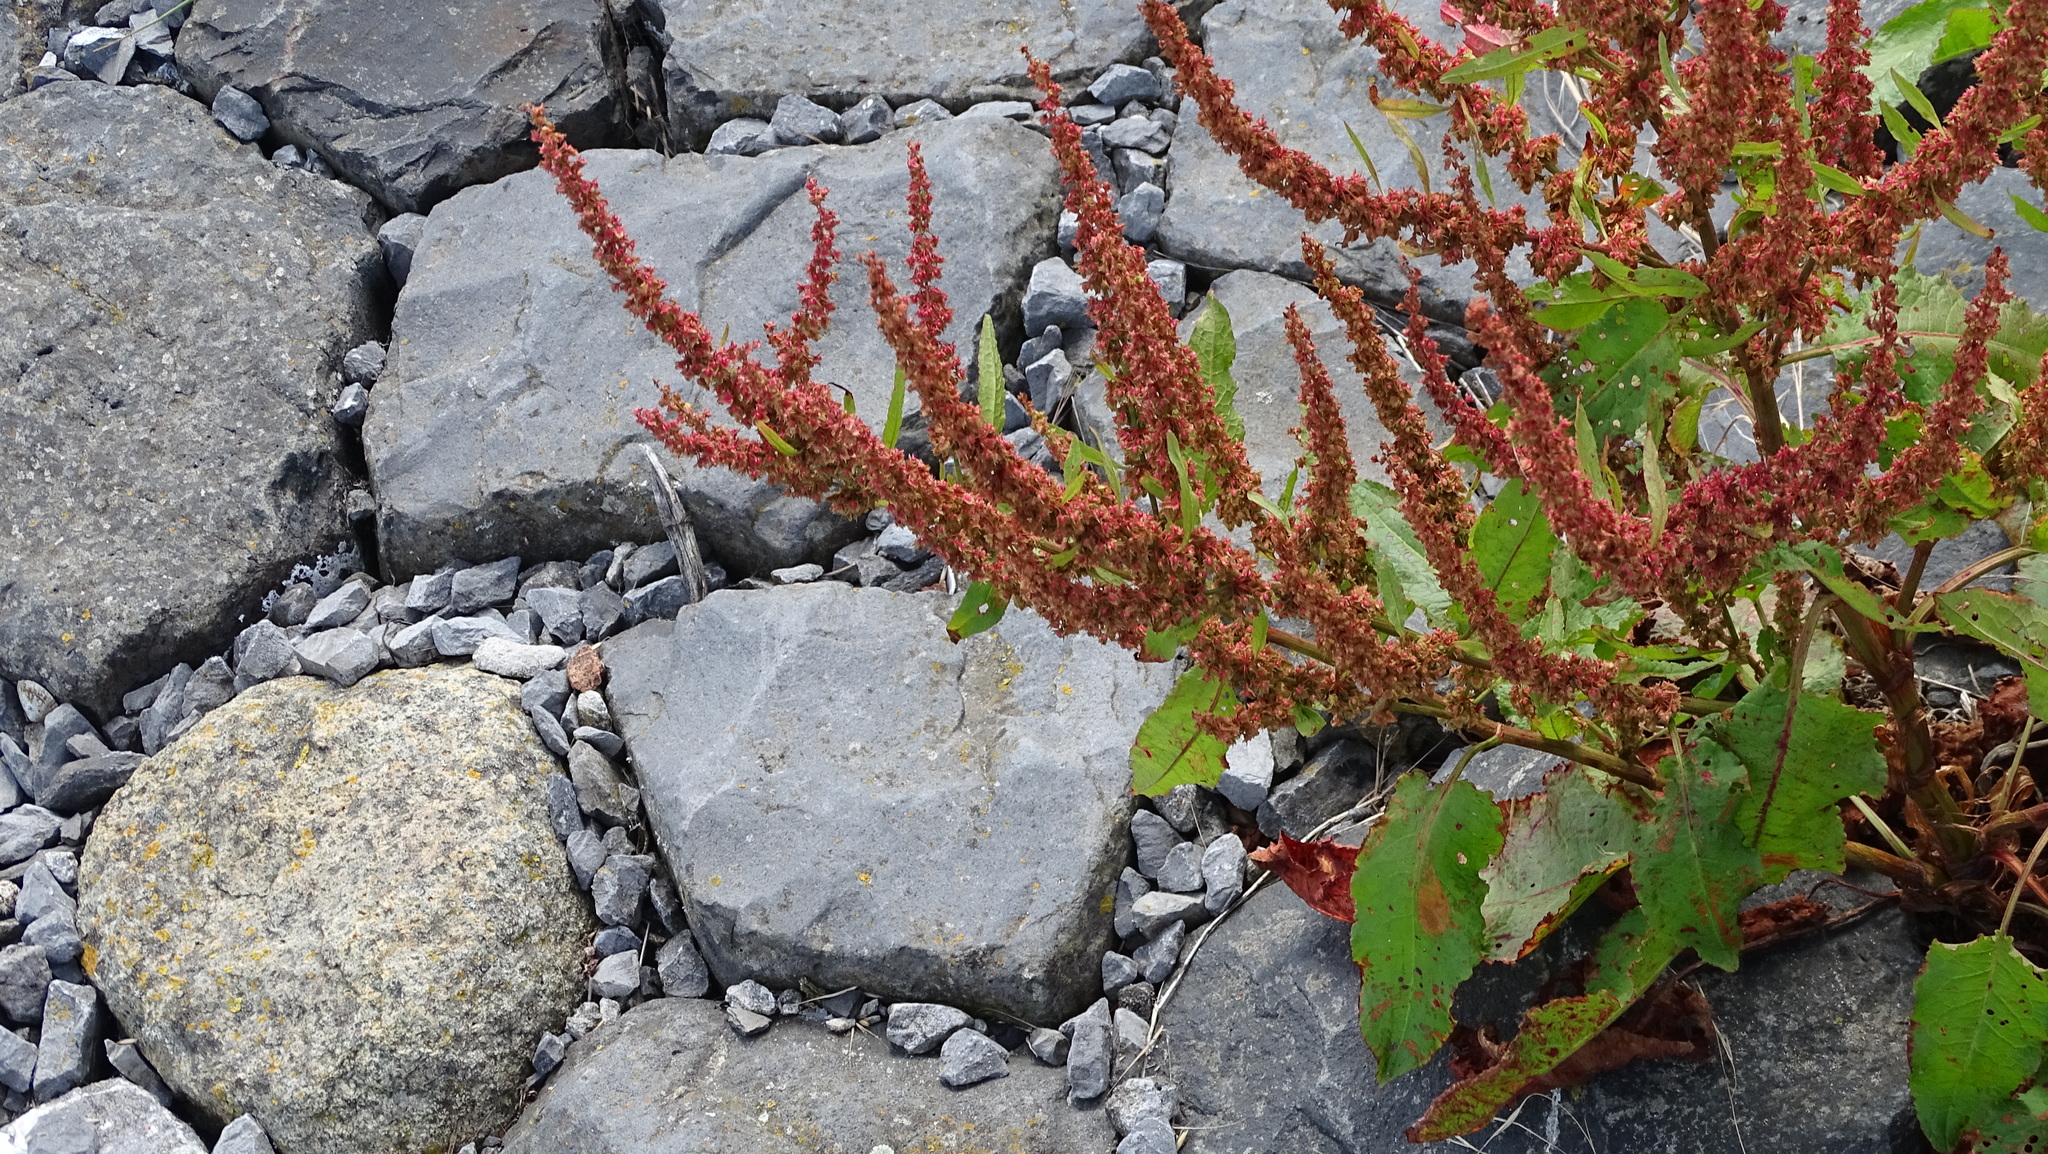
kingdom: Plantae
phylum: Tracheophyta
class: Magnoliopsida
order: Caryophyllales
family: Polygonaceae
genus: Rumex
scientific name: Rumex obtusifolius
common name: Bitter dock
